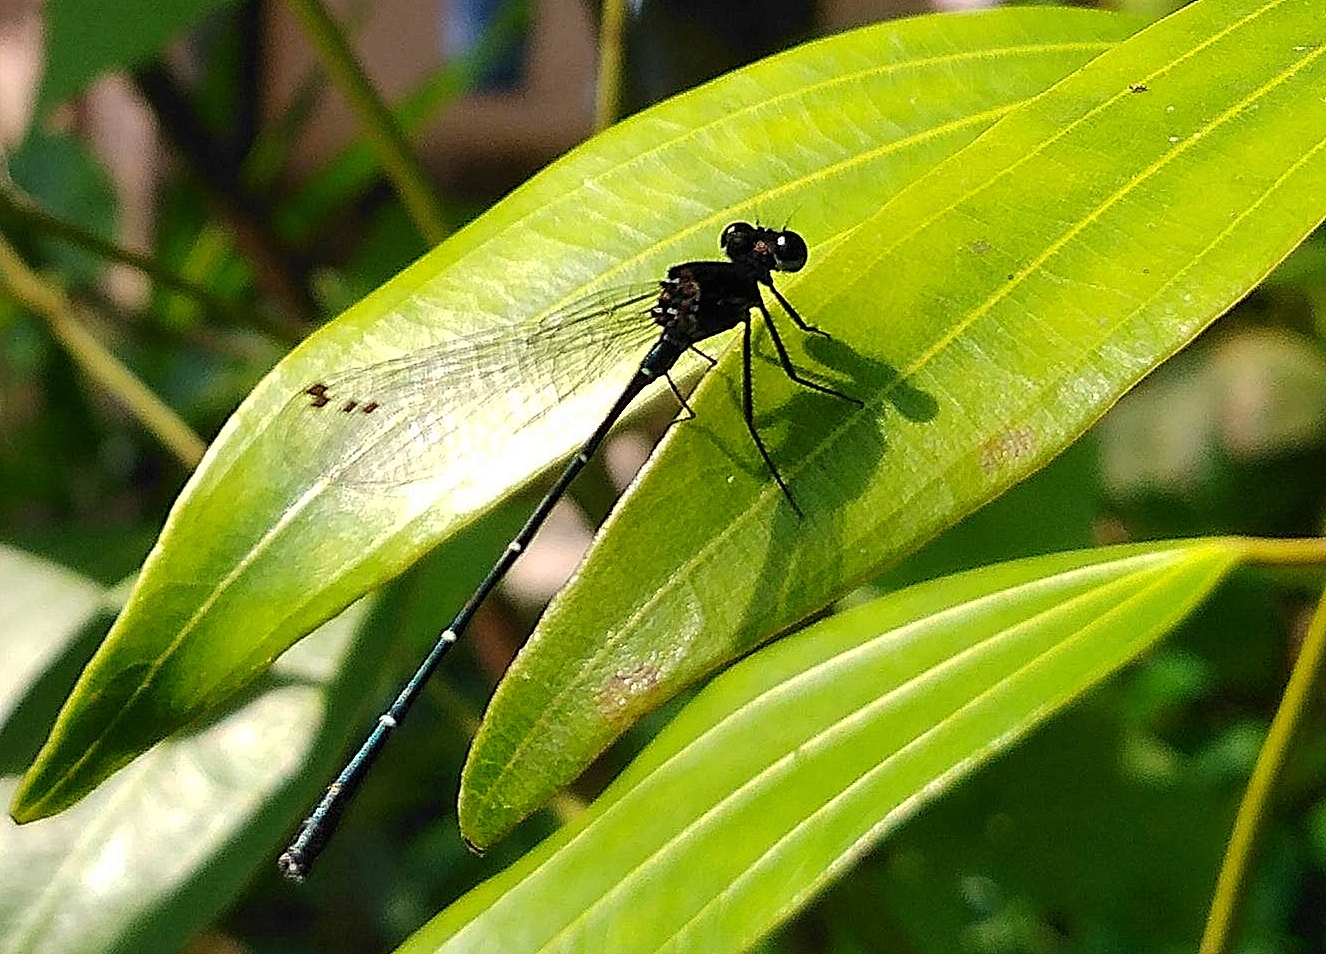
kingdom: Animalia
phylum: Arthropoda
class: Insecta
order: Odonata
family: Platycnemididae
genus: Onychargia
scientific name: Onychargia atrocyana
